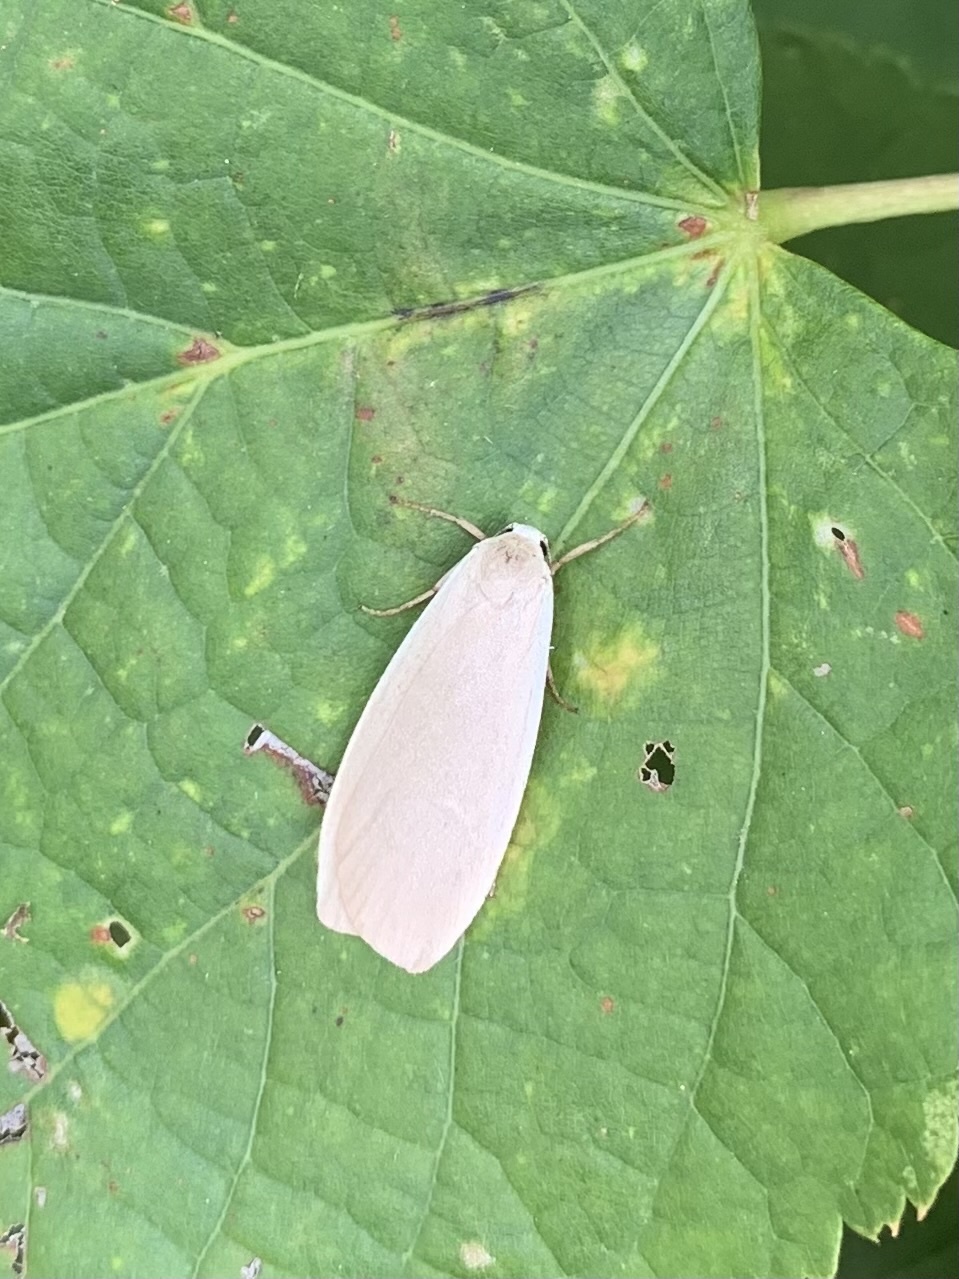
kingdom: Animalia
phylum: Arthropoda
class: Insecta
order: Lepidoptera
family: Erebidae
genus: Collita
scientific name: Collita griseola
